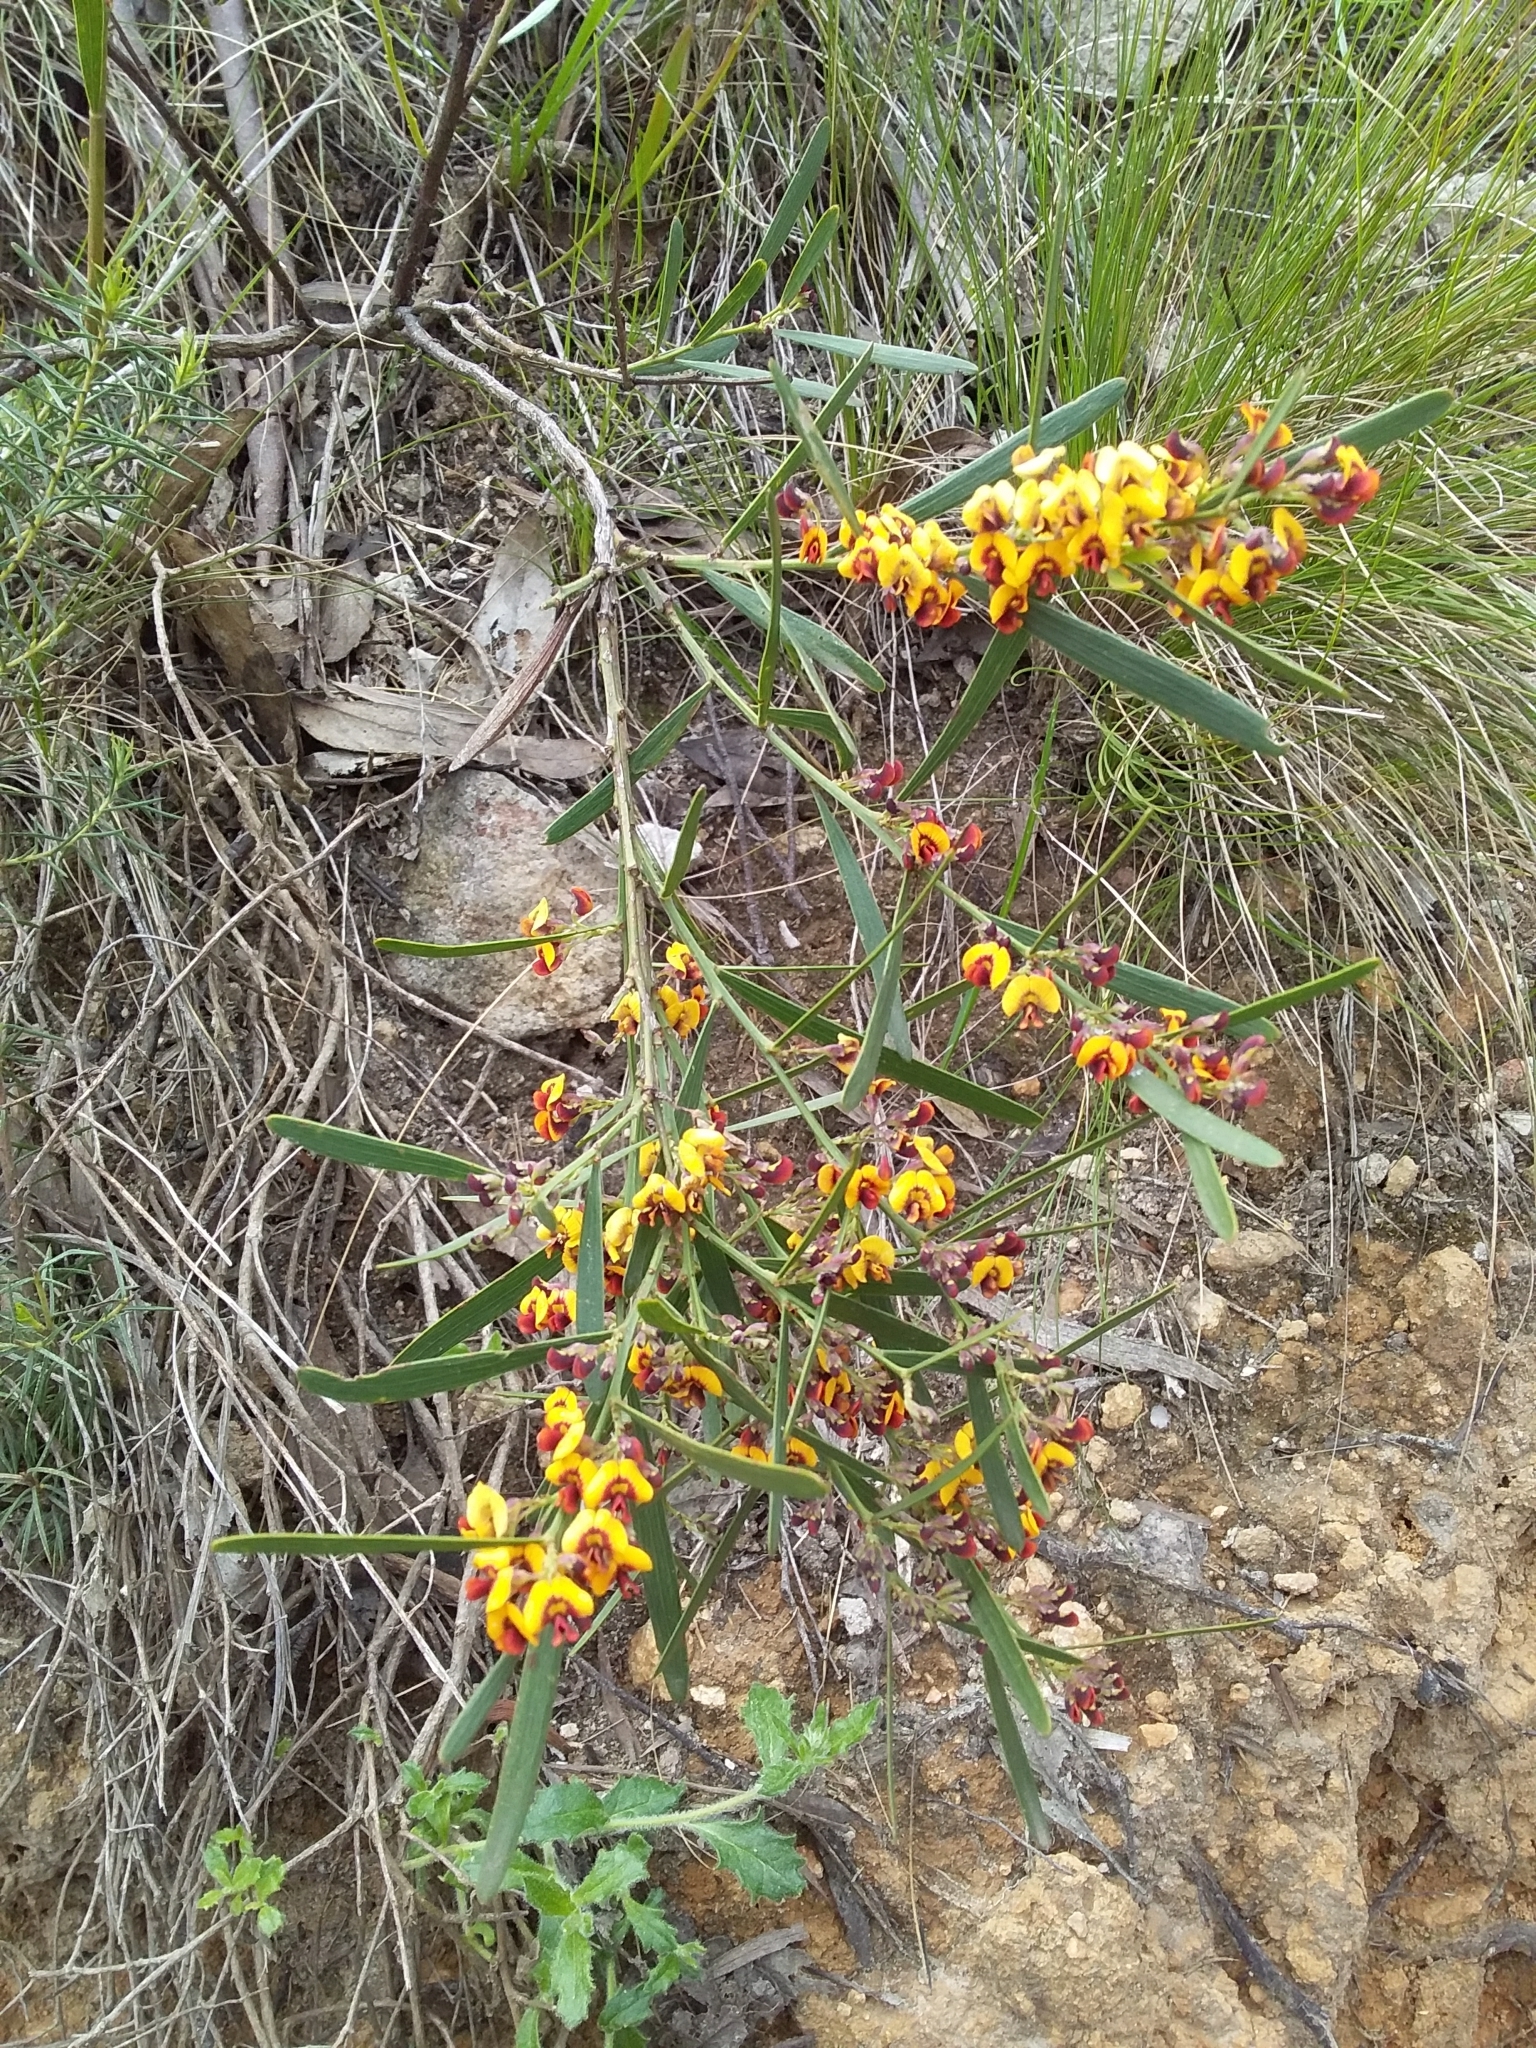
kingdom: Plantae
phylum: Tracheophyta
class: Magnoliopsida
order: Fabales
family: Fabaceae
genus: Daviesia
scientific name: Daviesia leptophylla
